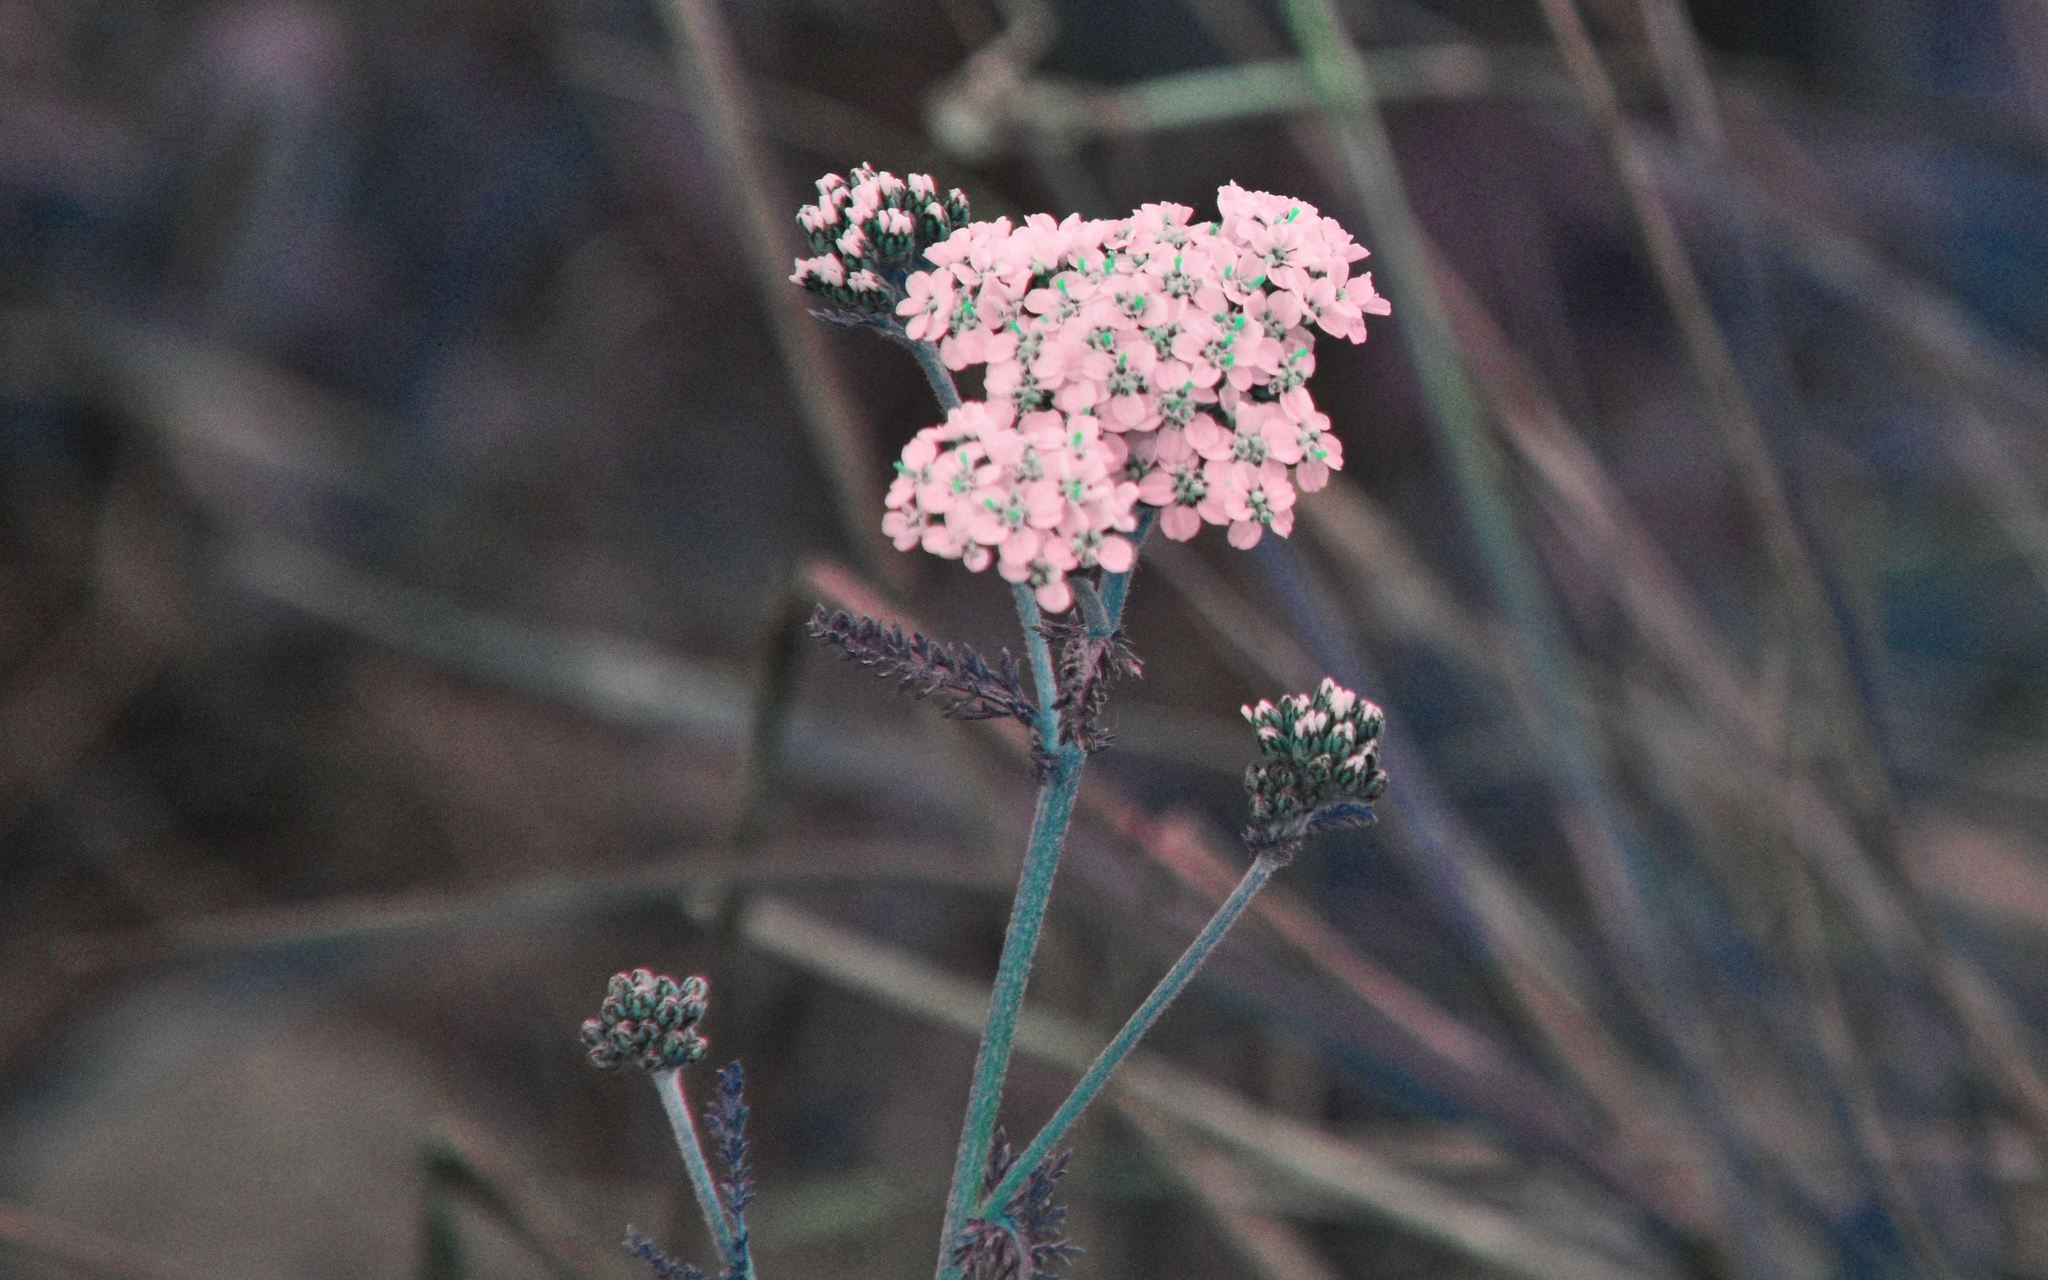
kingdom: Plantae
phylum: Tracheophyta
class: Magnoliopsida
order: Asterales
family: Asteraceae
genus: Achillea
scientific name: Achillea millefolium
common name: Yarrow
